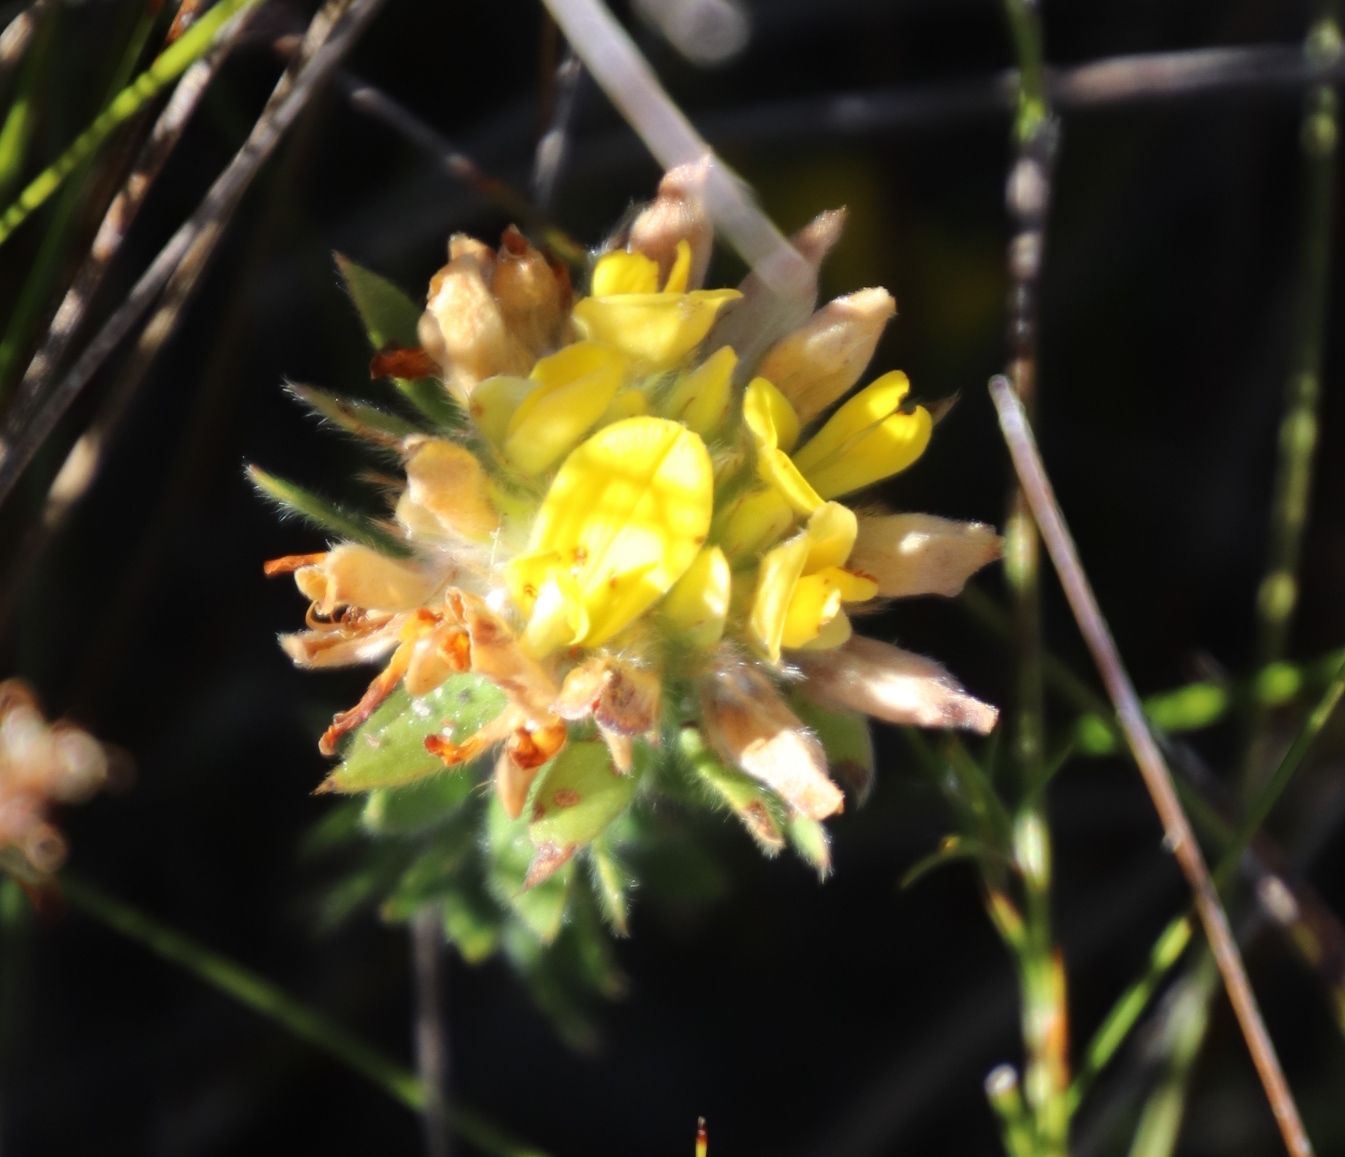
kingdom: Plantae
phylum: Tracheophyta
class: Magnoliopsida
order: Fabales
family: Fabaceae
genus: Aspalathus
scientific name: Aspalathus aspalathoides
